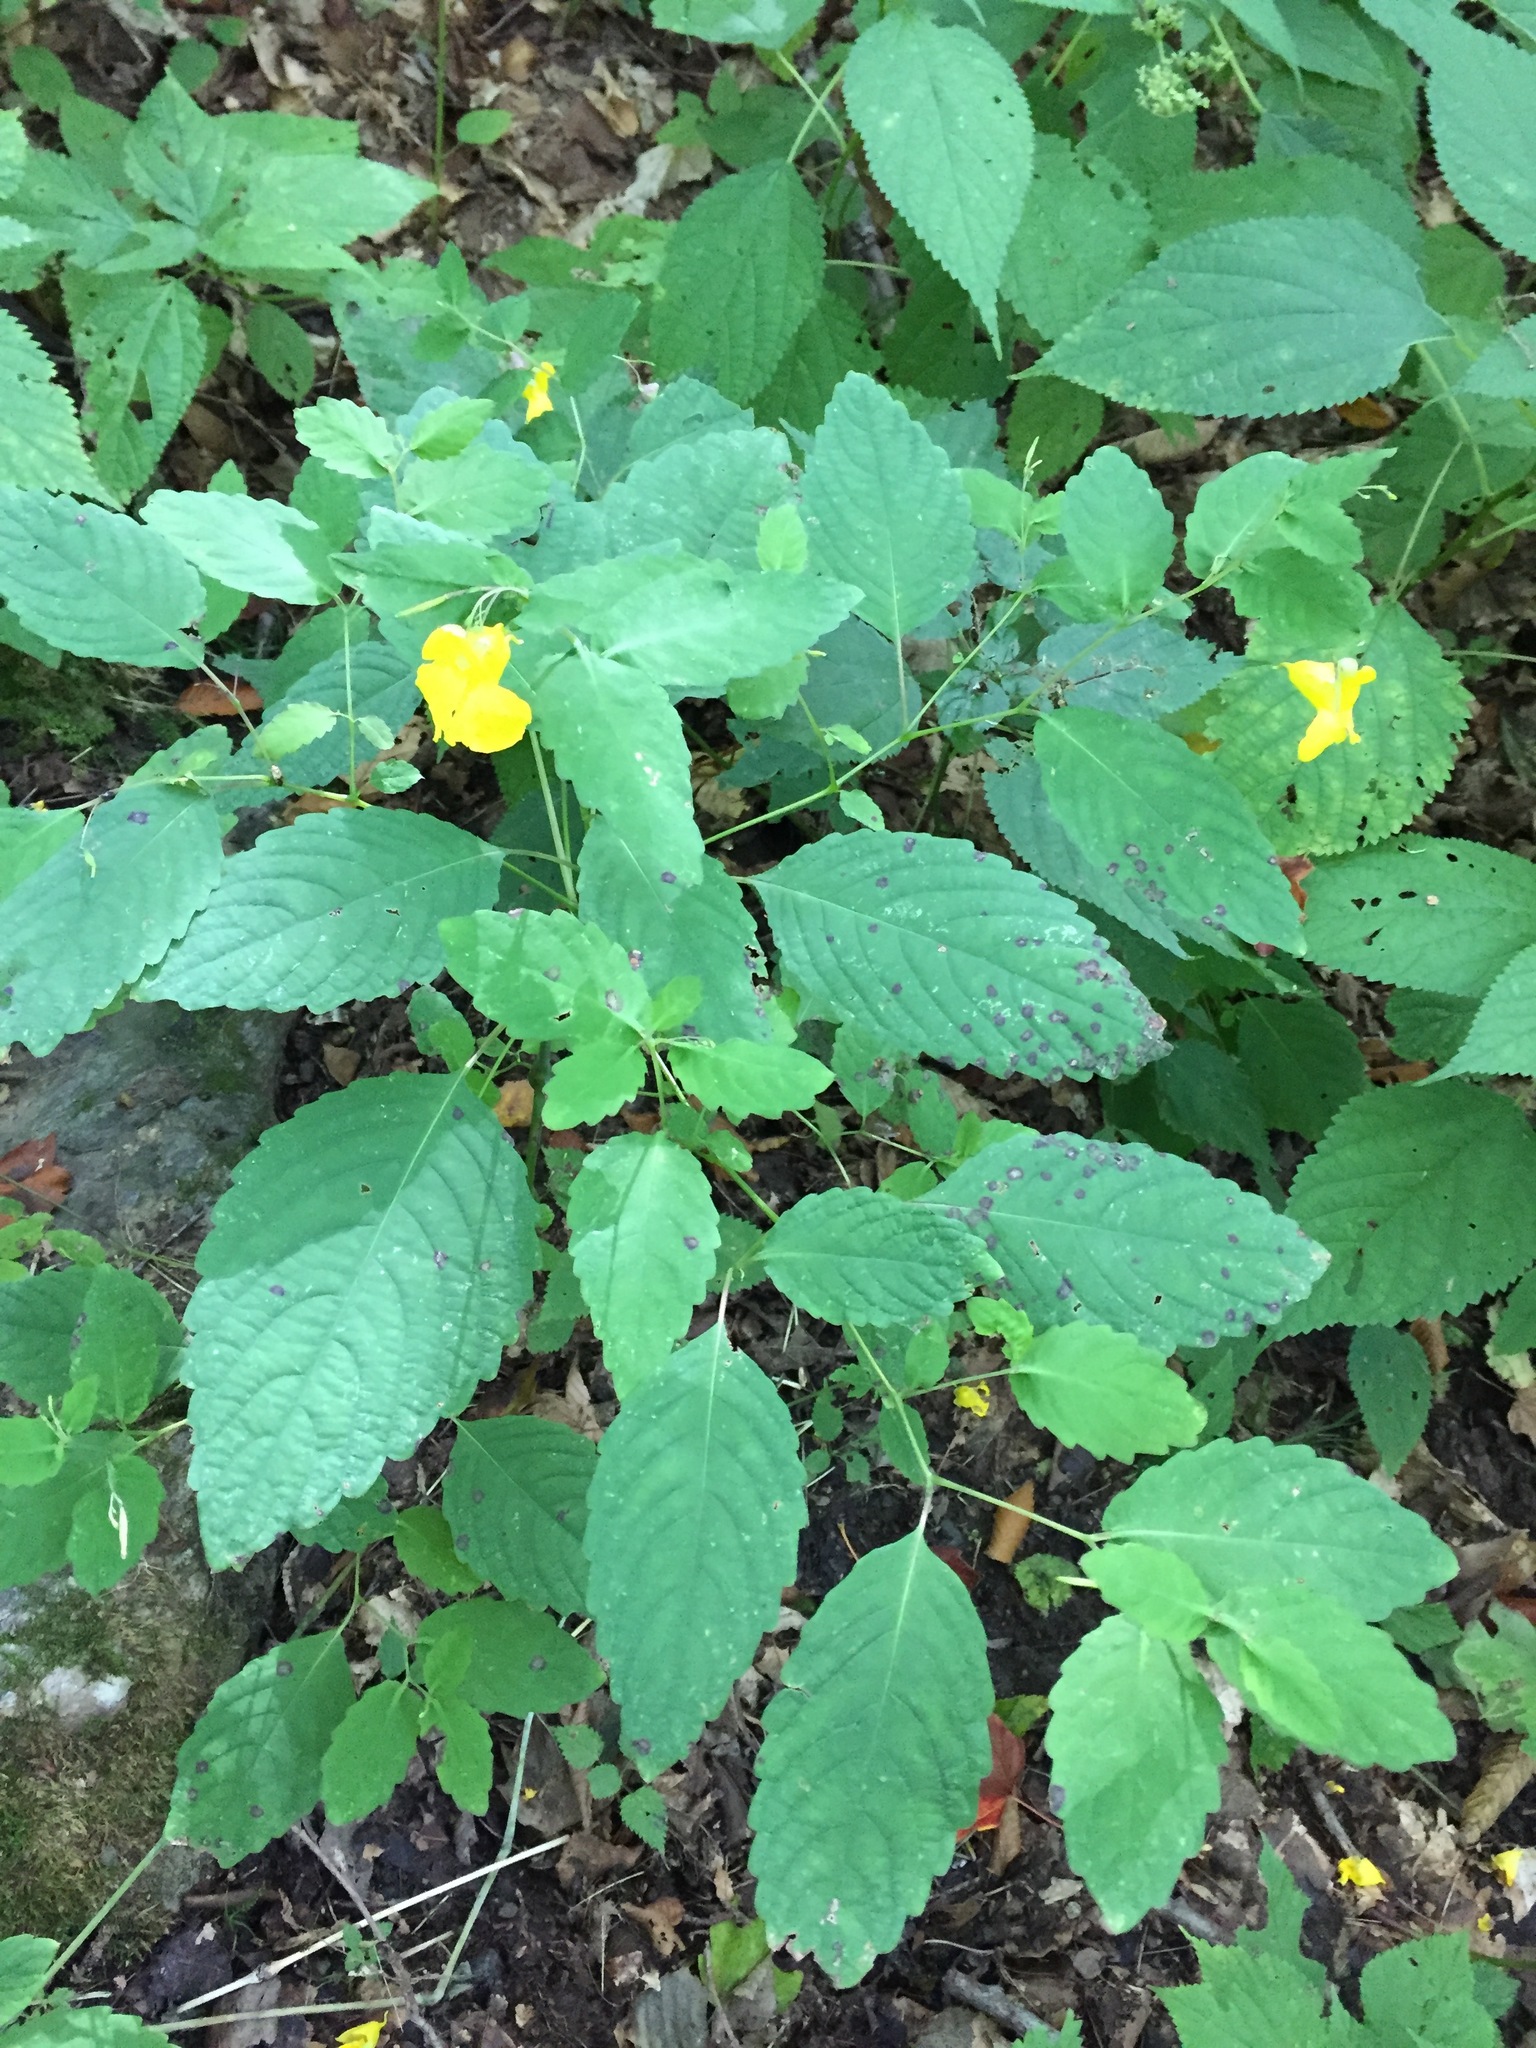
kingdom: Plantae
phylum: Tracheophyta
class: Magnoliopsida
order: Ericales
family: Balsaminaceae
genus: Impatiens
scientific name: Impatiens pallida
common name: Pale snapweed
